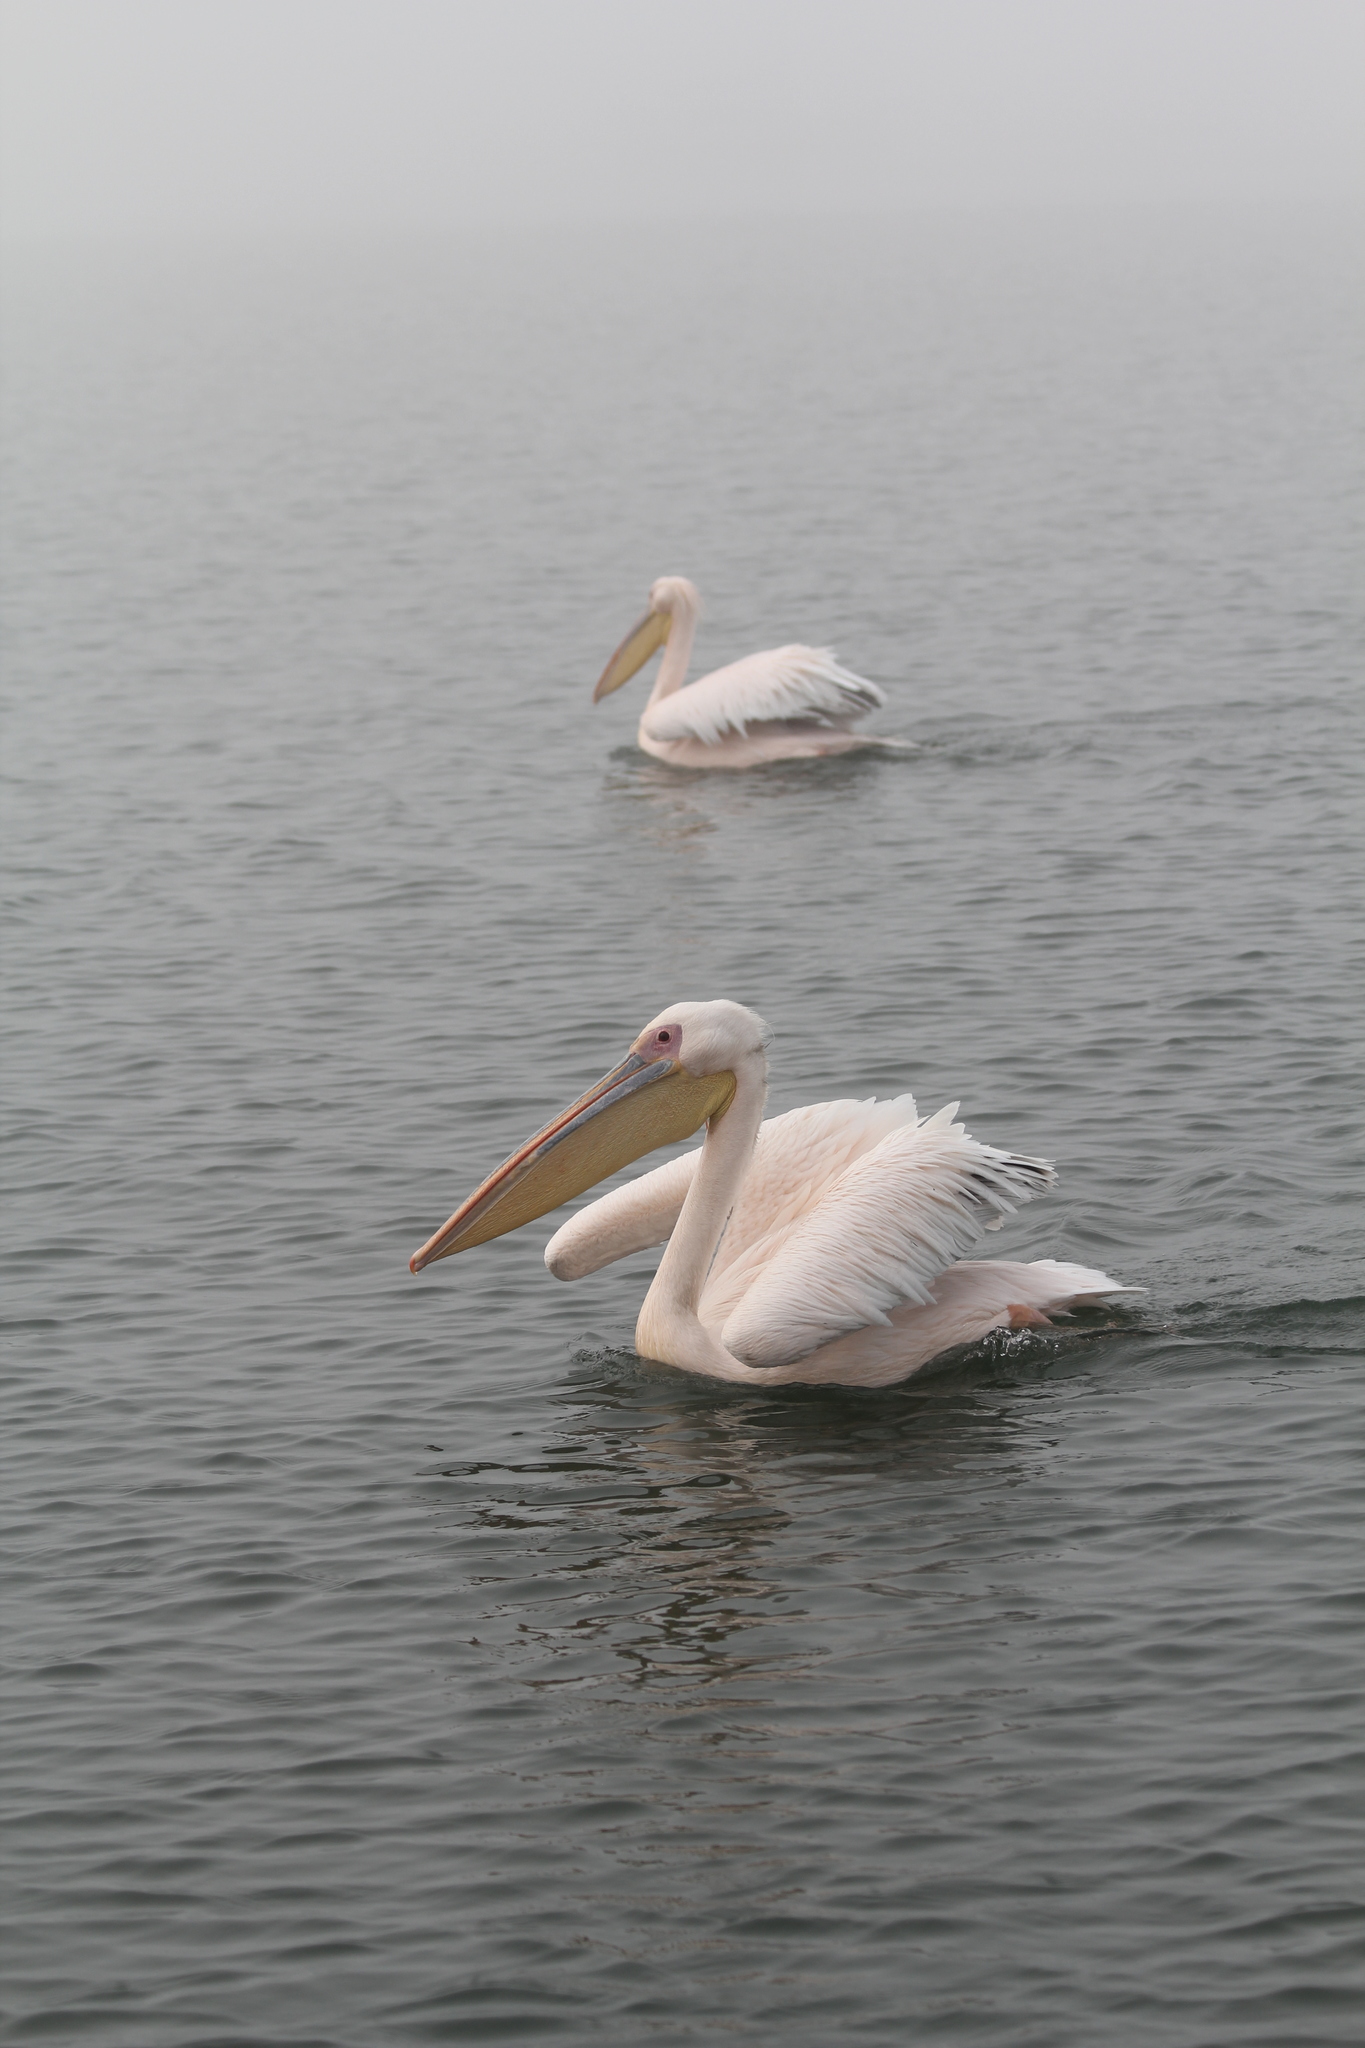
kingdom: Animalia
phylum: Chordata
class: Aves
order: Pelecaniformes
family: Pelecanidae
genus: Pelecanus
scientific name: Pelecanus onocrotalus
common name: Great white pelican
